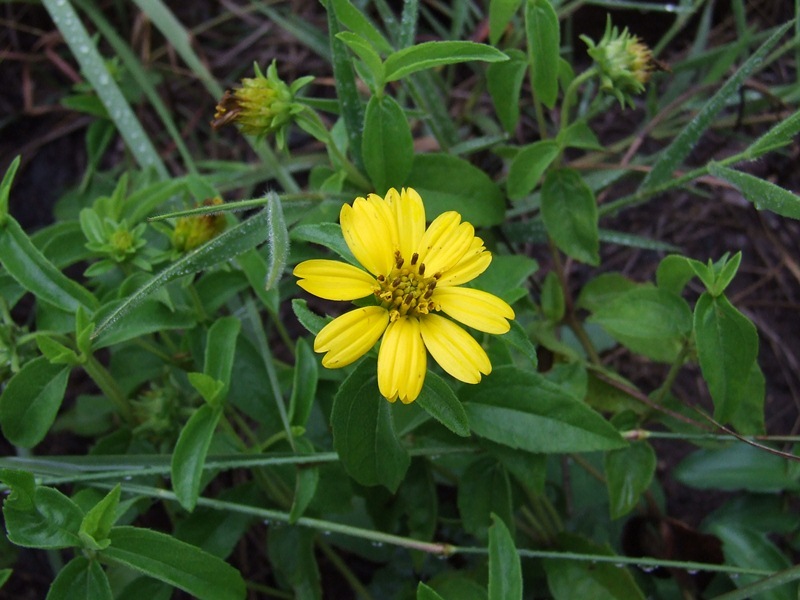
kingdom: Plantae
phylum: Tracheophyta
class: Magnoliopsida
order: Asterales
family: Asteraceae
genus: Aspilia
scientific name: Aspilia pluriseta
